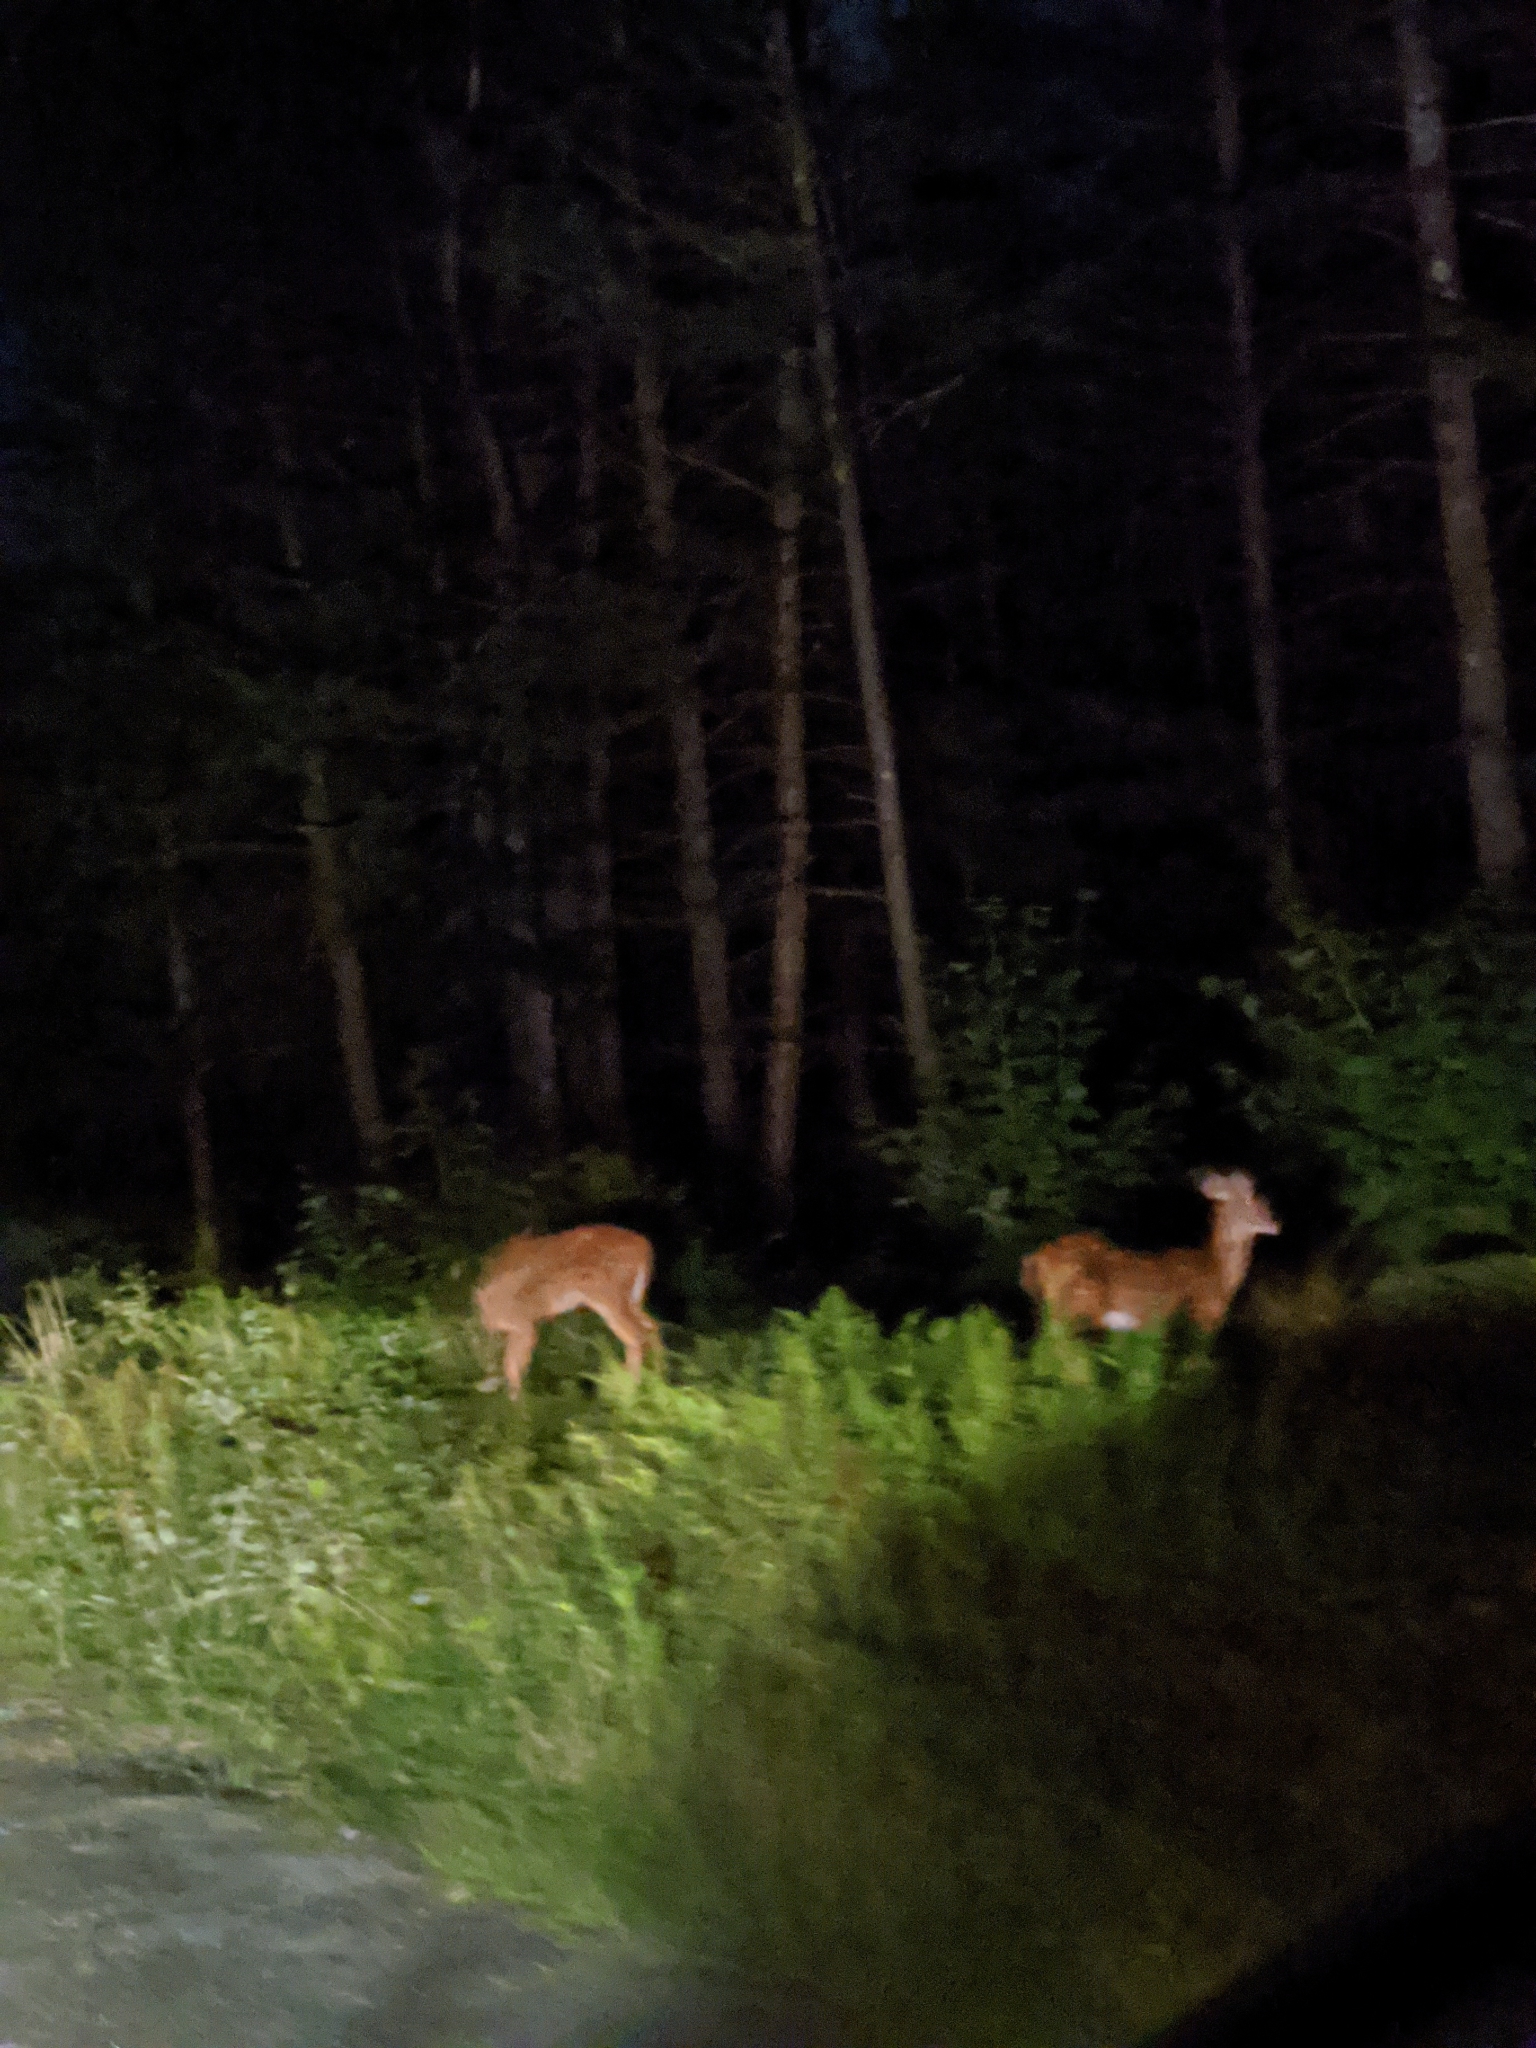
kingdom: Animalia
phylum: Chordata
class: Mammalia
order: Artiodactyla
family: Cervidae
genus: Odocoileus
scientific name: Odocoileus virginianus
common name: White-tailed deer
